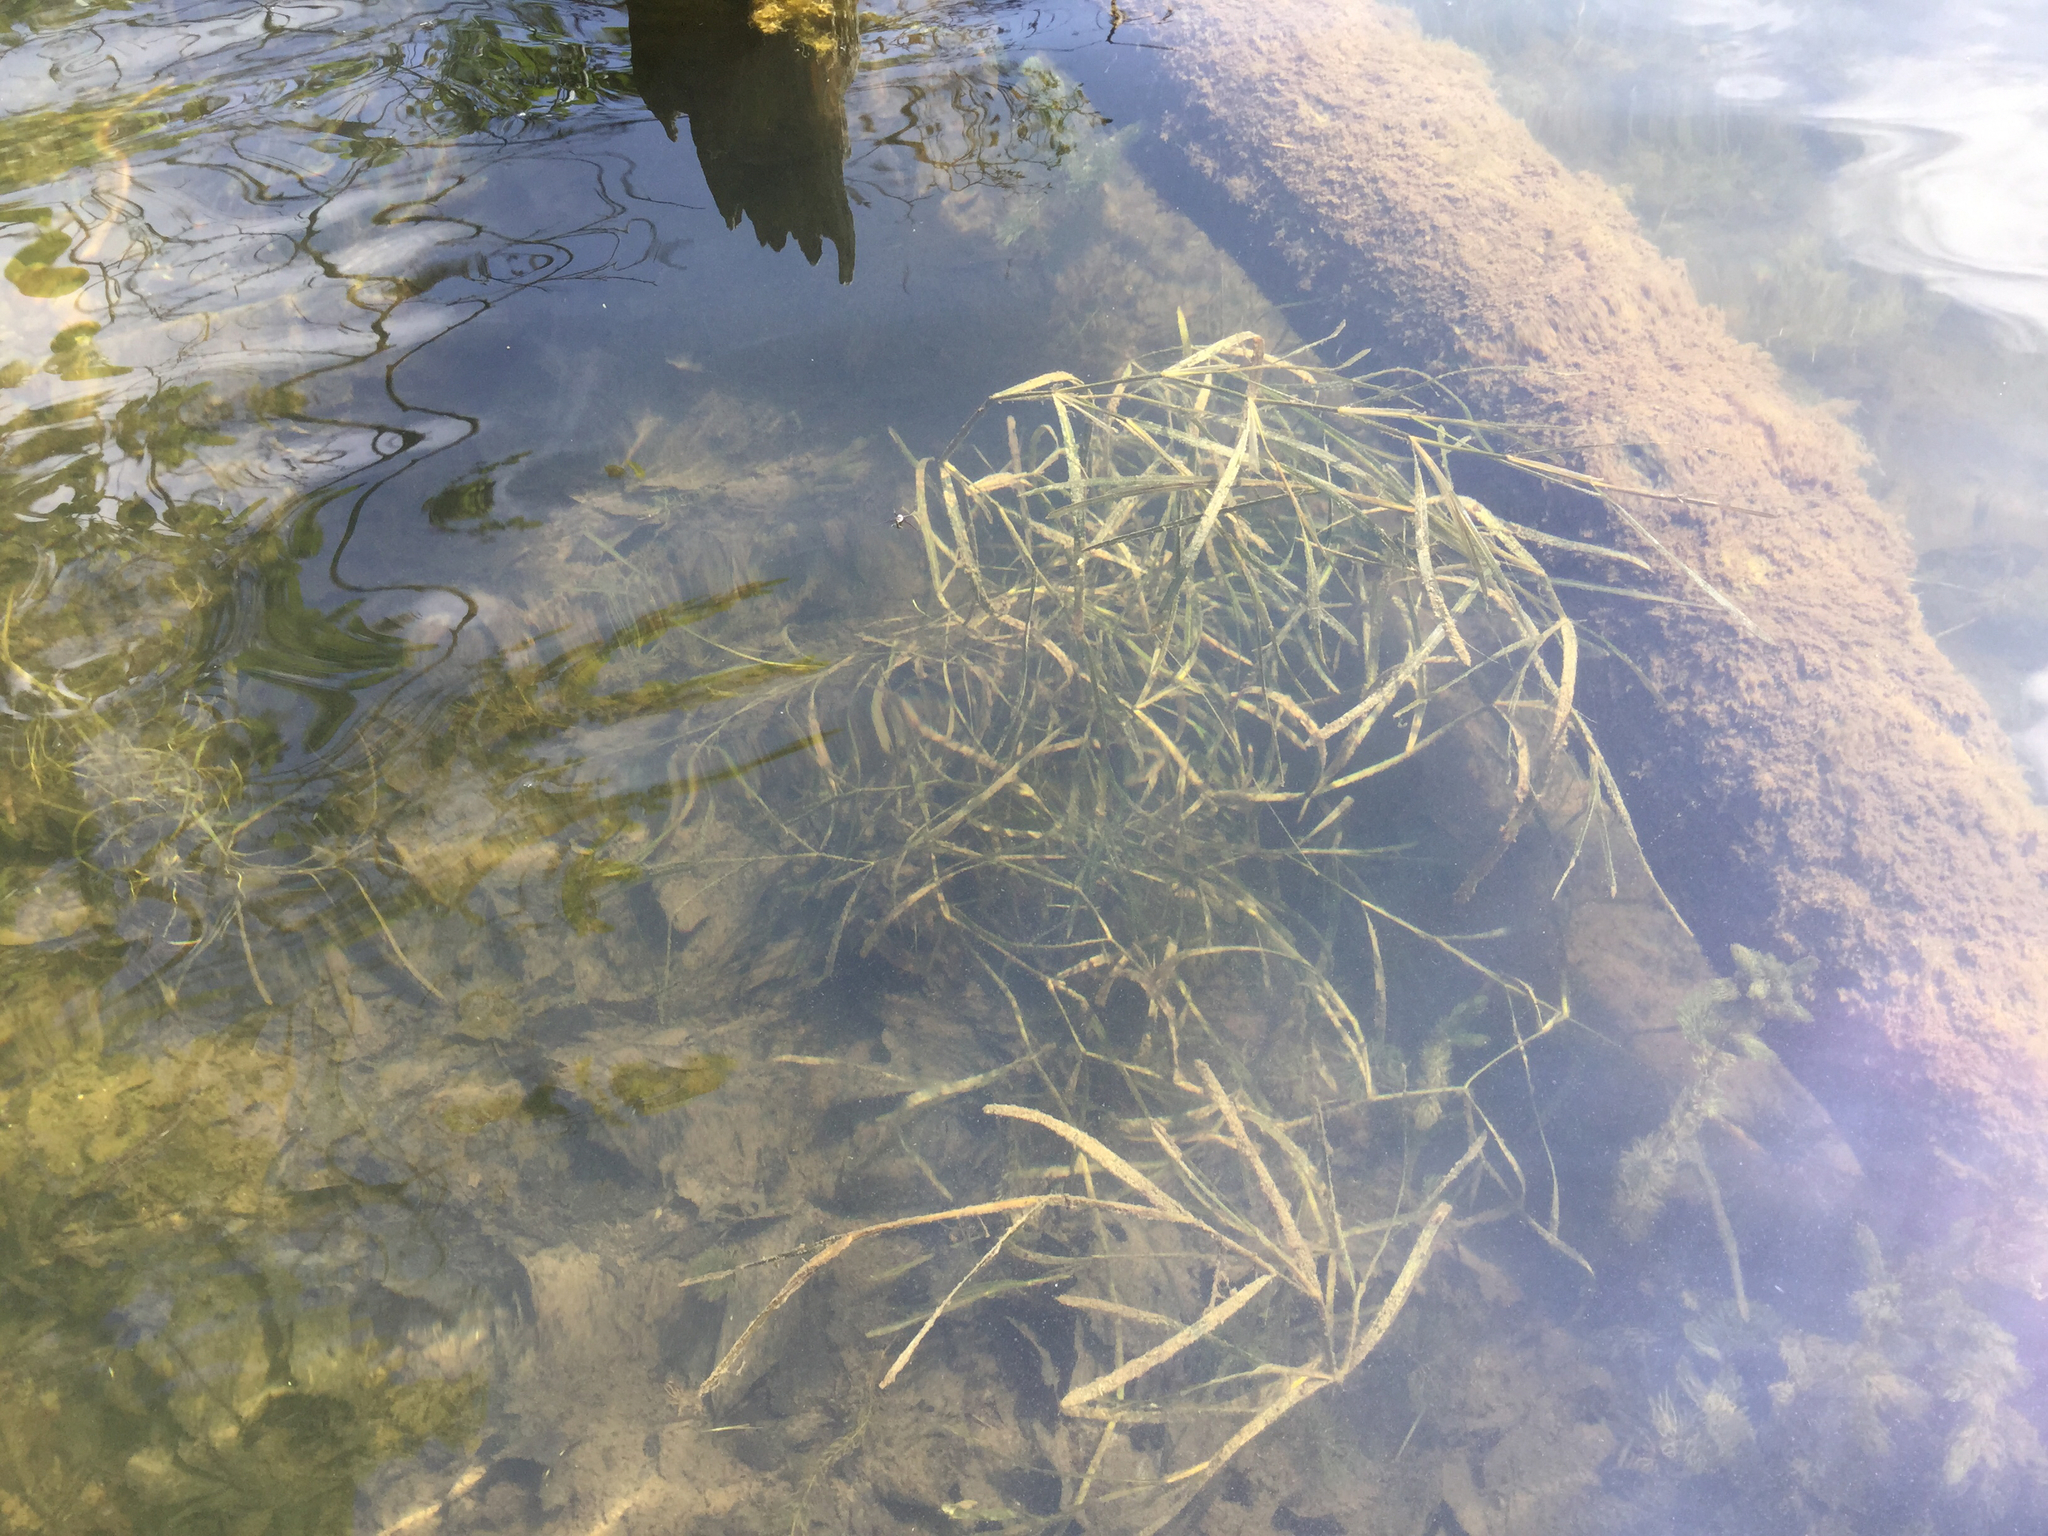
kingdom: Plantae
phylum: Tracheophyta
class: Liliopsida
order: Alismatales
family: Potamogetonaceae
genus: Potamogeton
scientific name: Potamogeton zosteriformis
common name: Eelgrass pondweed
